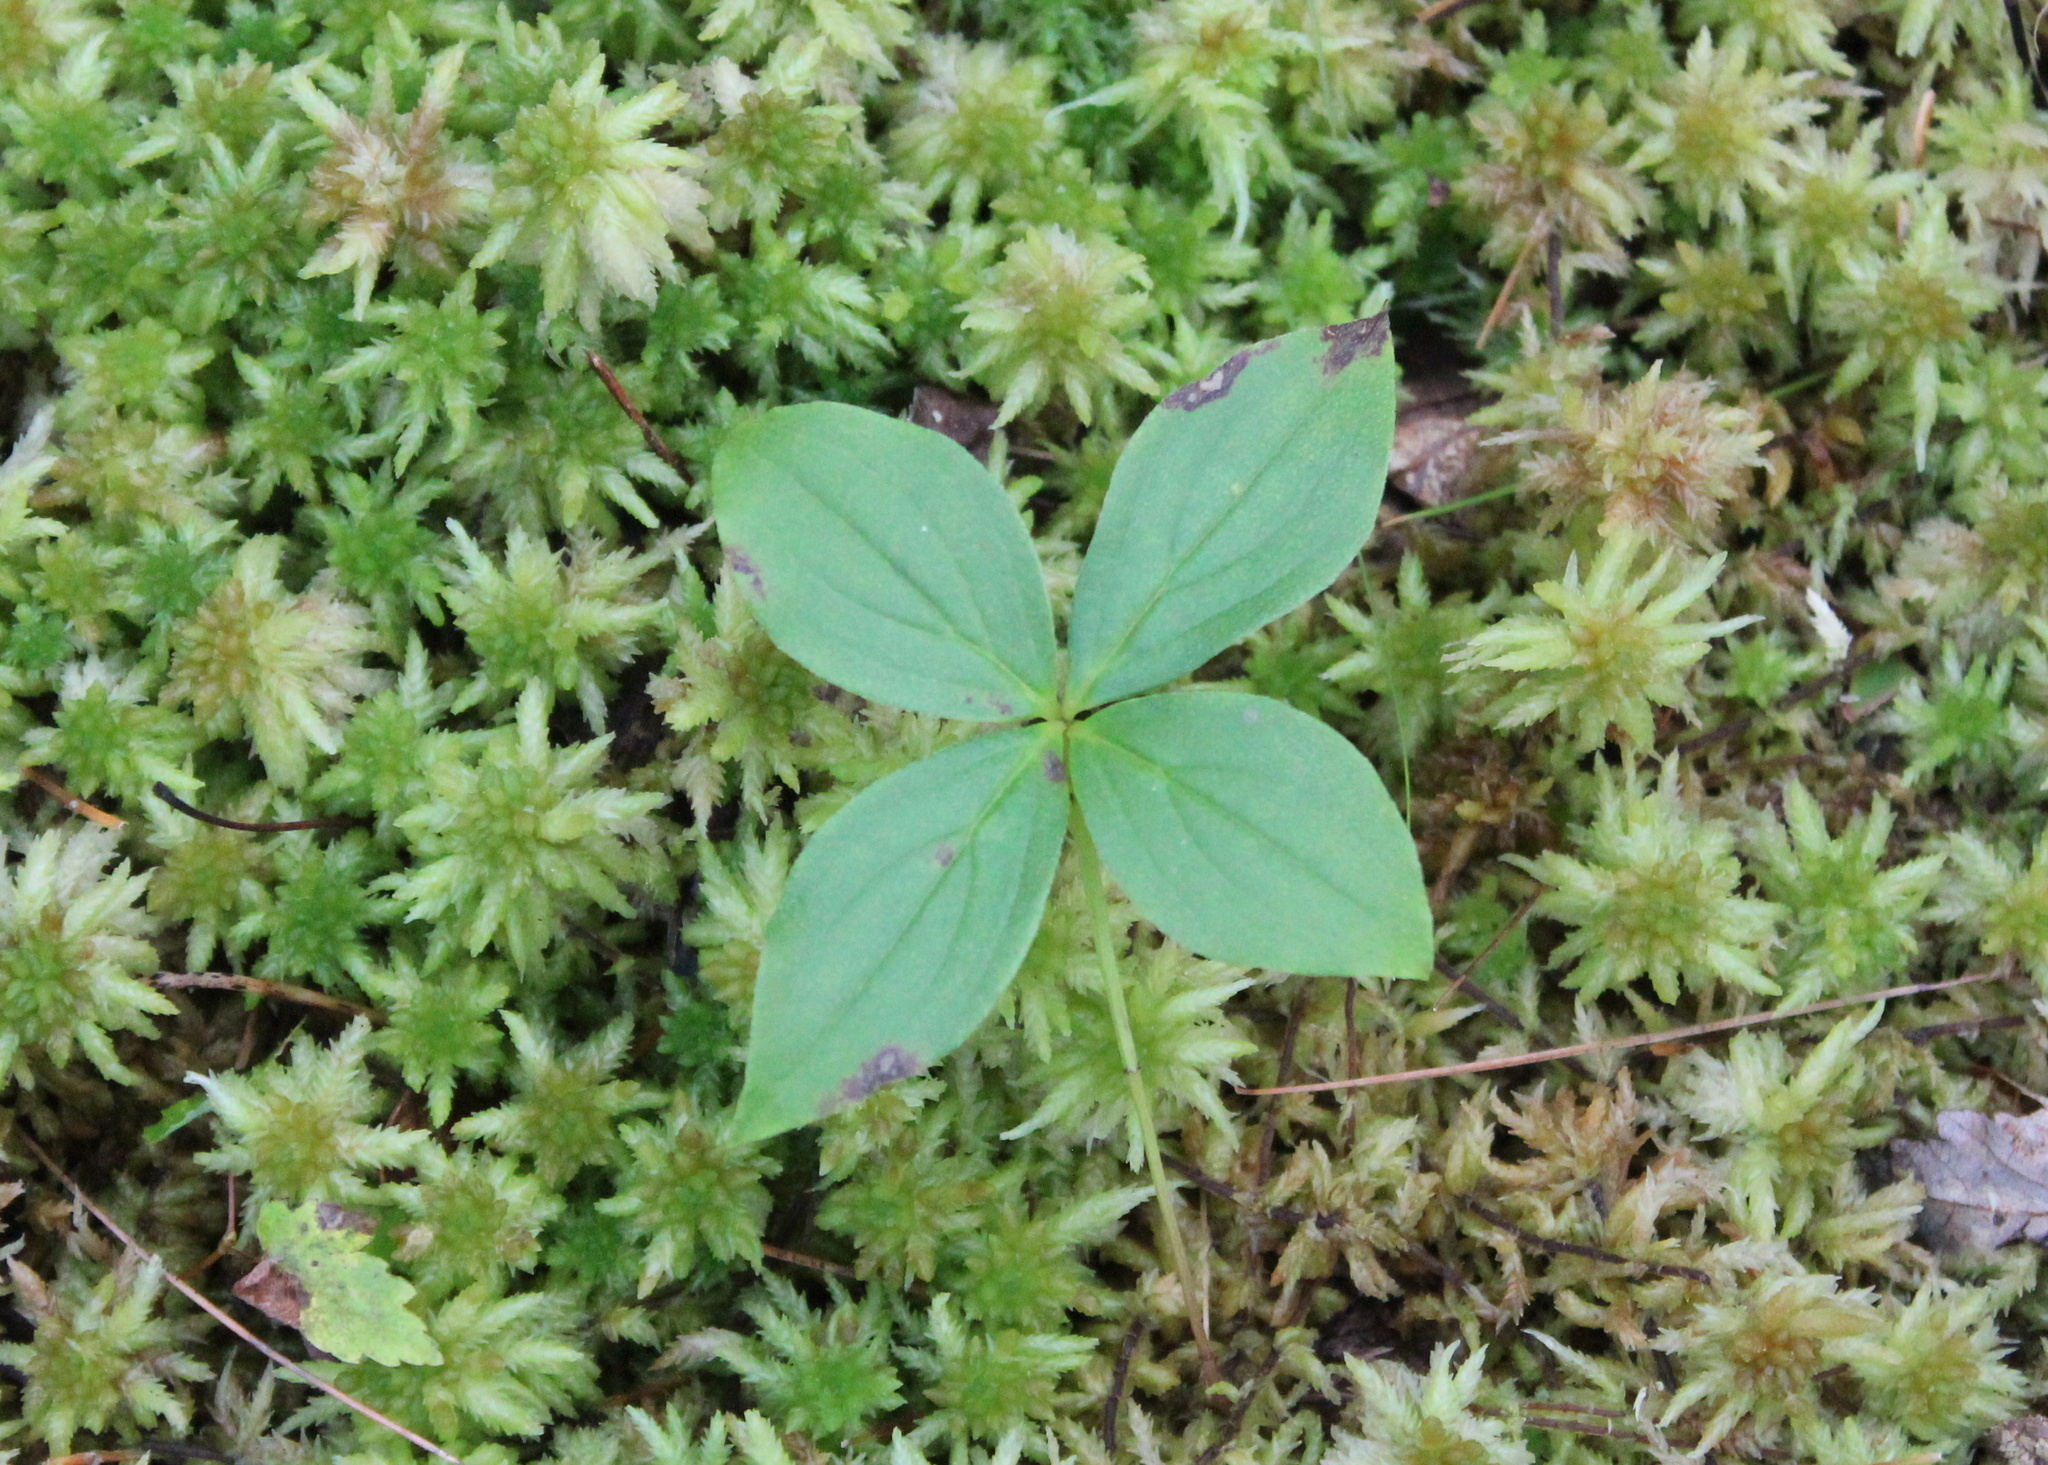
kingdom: Plantae
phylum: Tracheophyta
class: Magnoliopsida
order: Cornales
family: Cornaceae
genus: Cornus
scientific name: Cornus canadensis
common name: Creeping dogwood
